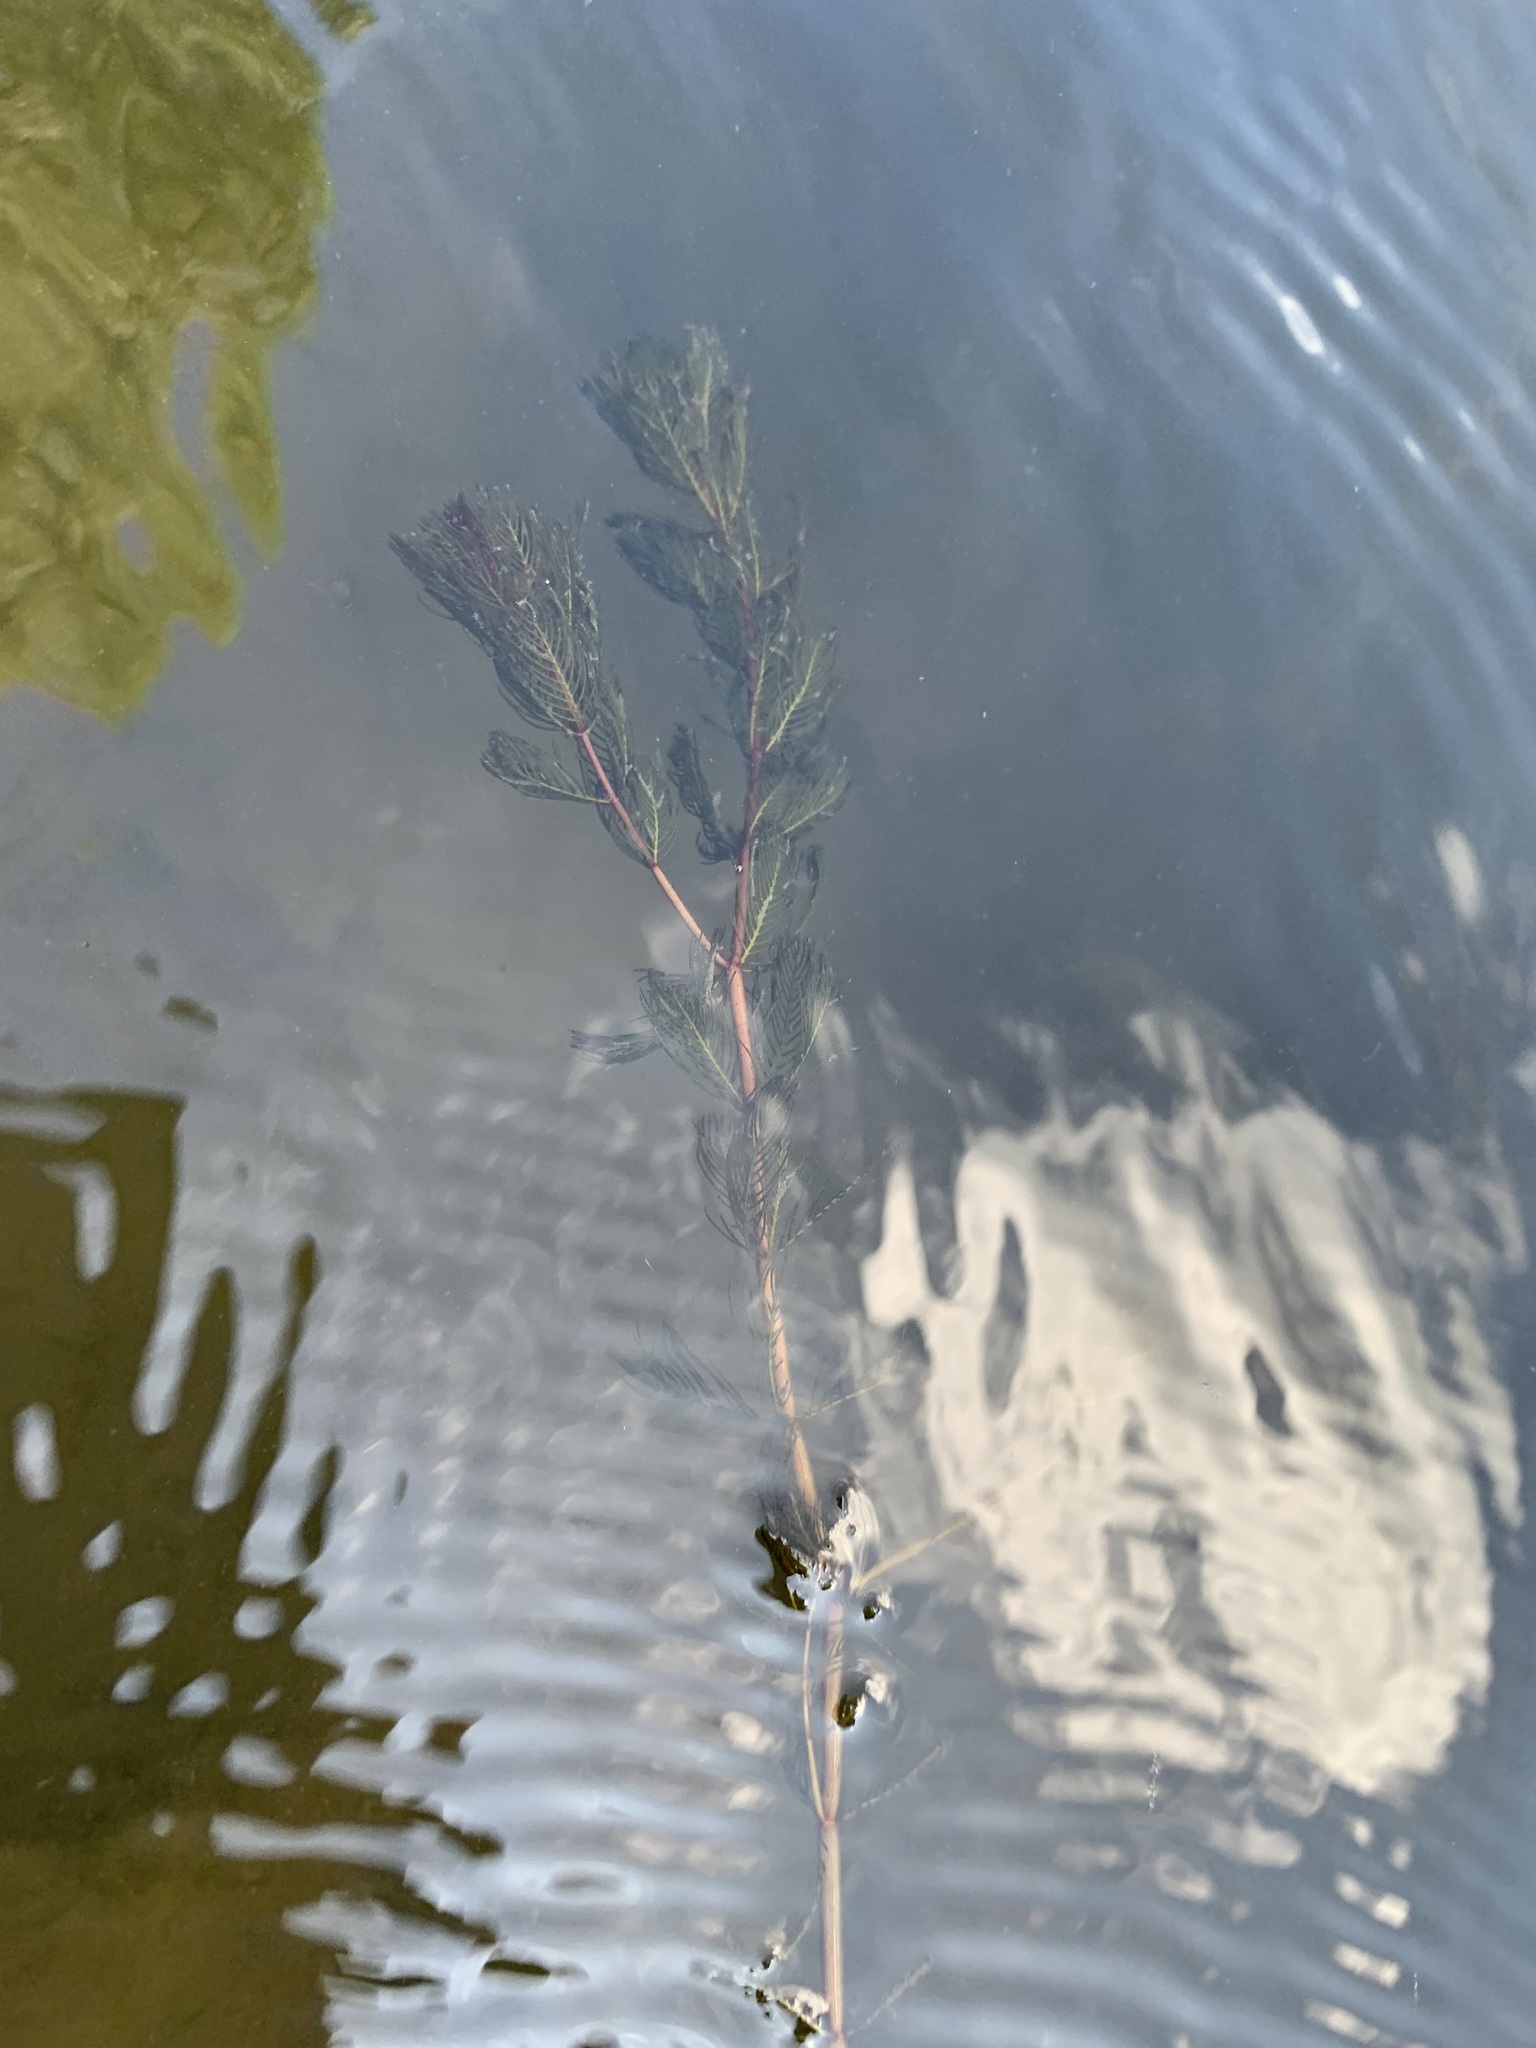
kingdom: Plantae
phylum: Tracheophyta
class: Magnoliopsida
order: Saxifragales
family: Haloragaceae
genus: Myriophyllum
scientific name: Myriophyllum spicatum
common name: Spiked water-milfoil
